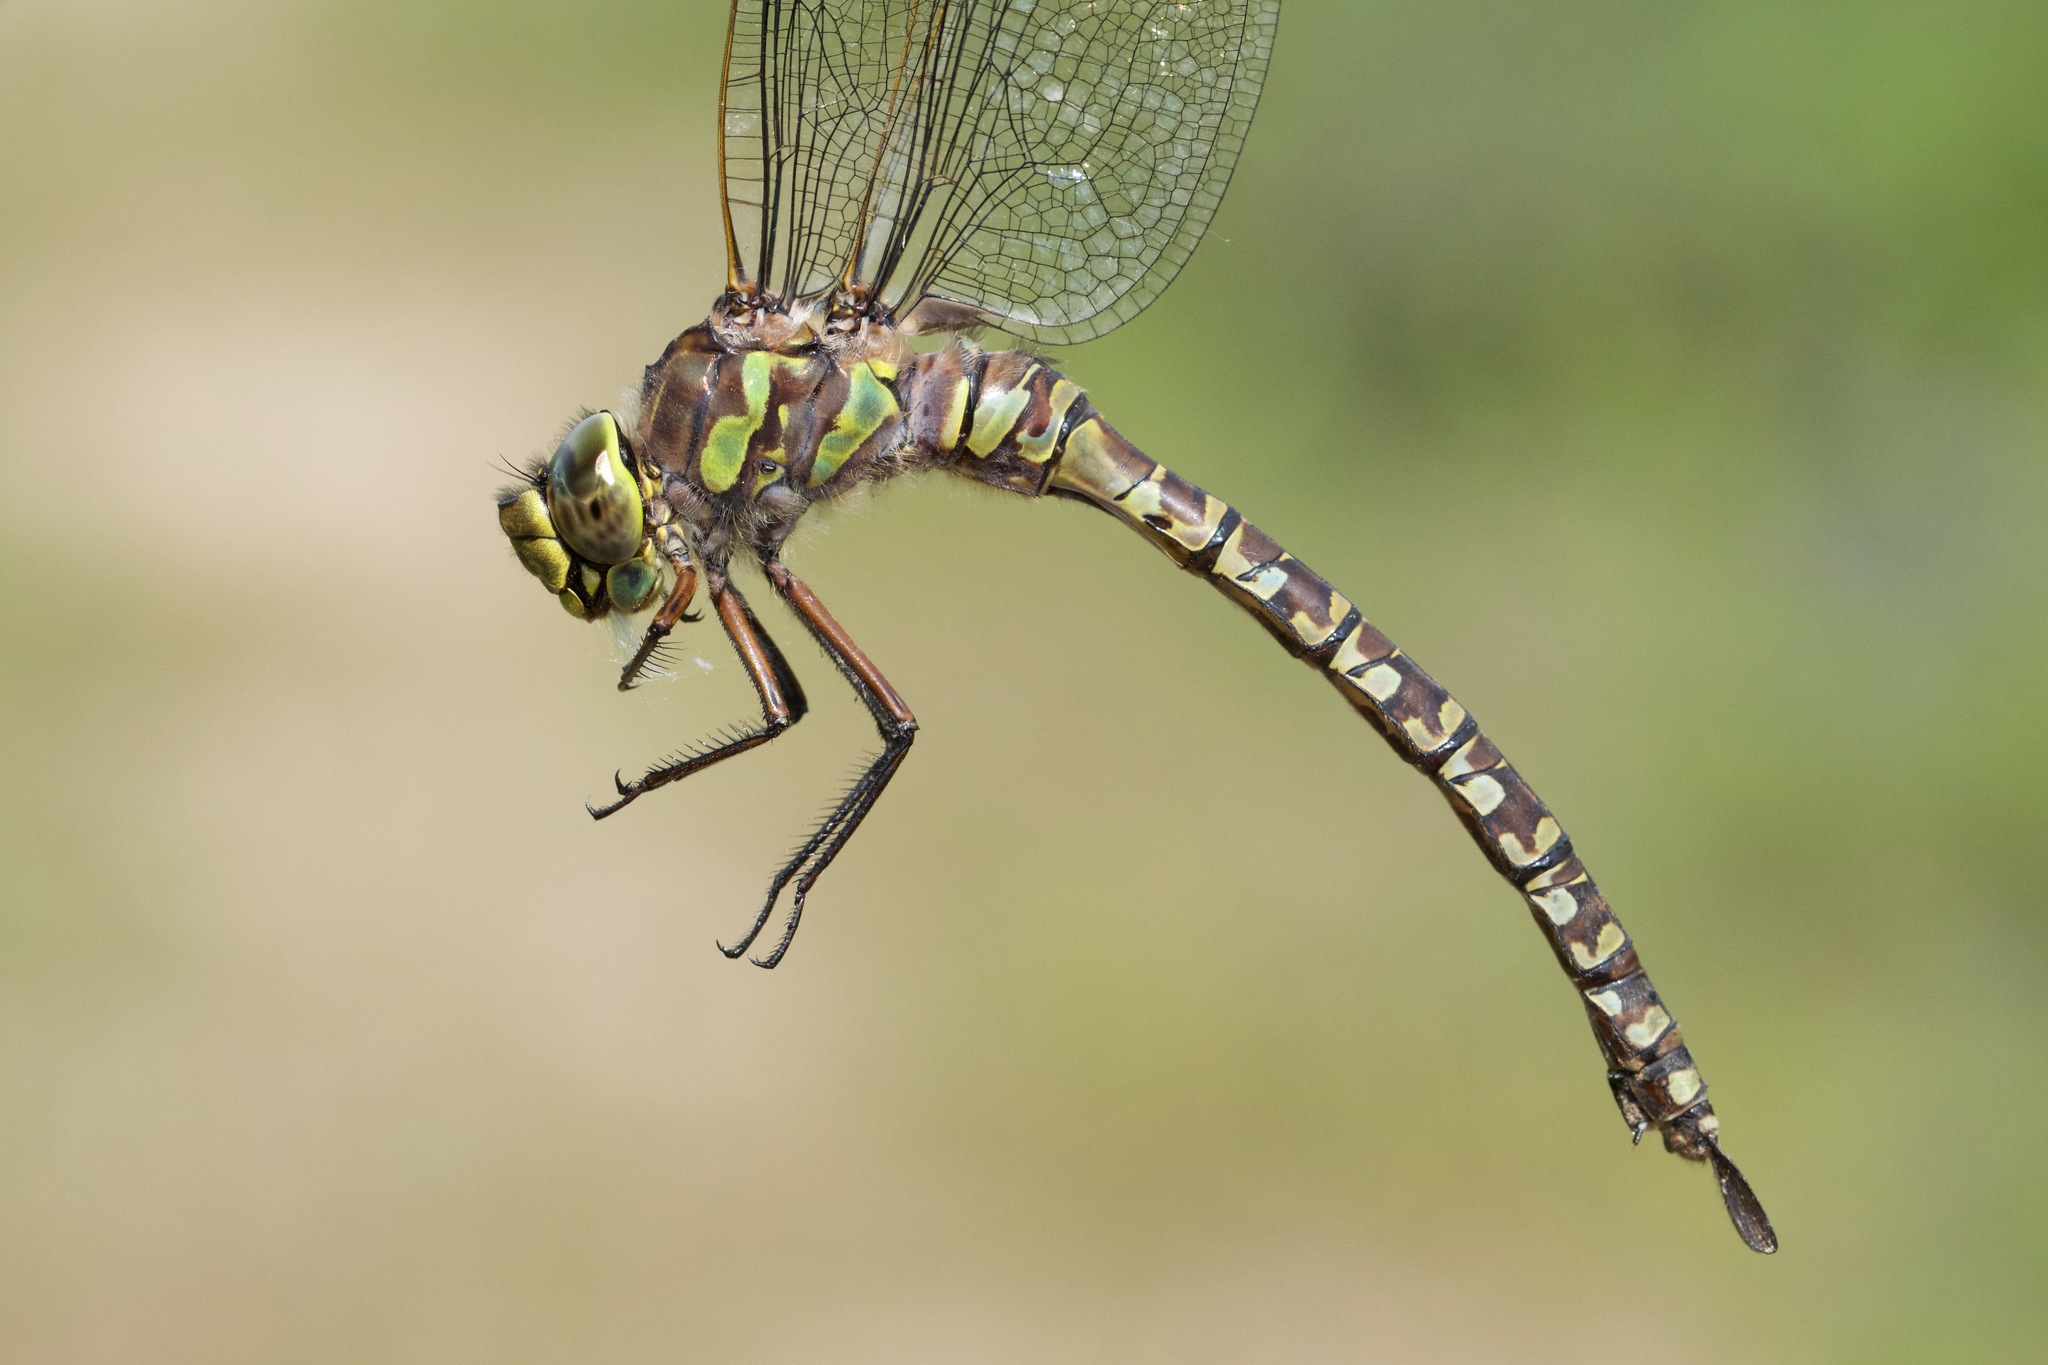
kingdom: Animalia
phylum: Arthropoda
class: Insecta
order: Odonata
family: Aeshnidae
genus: Aeshna
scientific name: Aeshna eremita
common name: Lake darner
